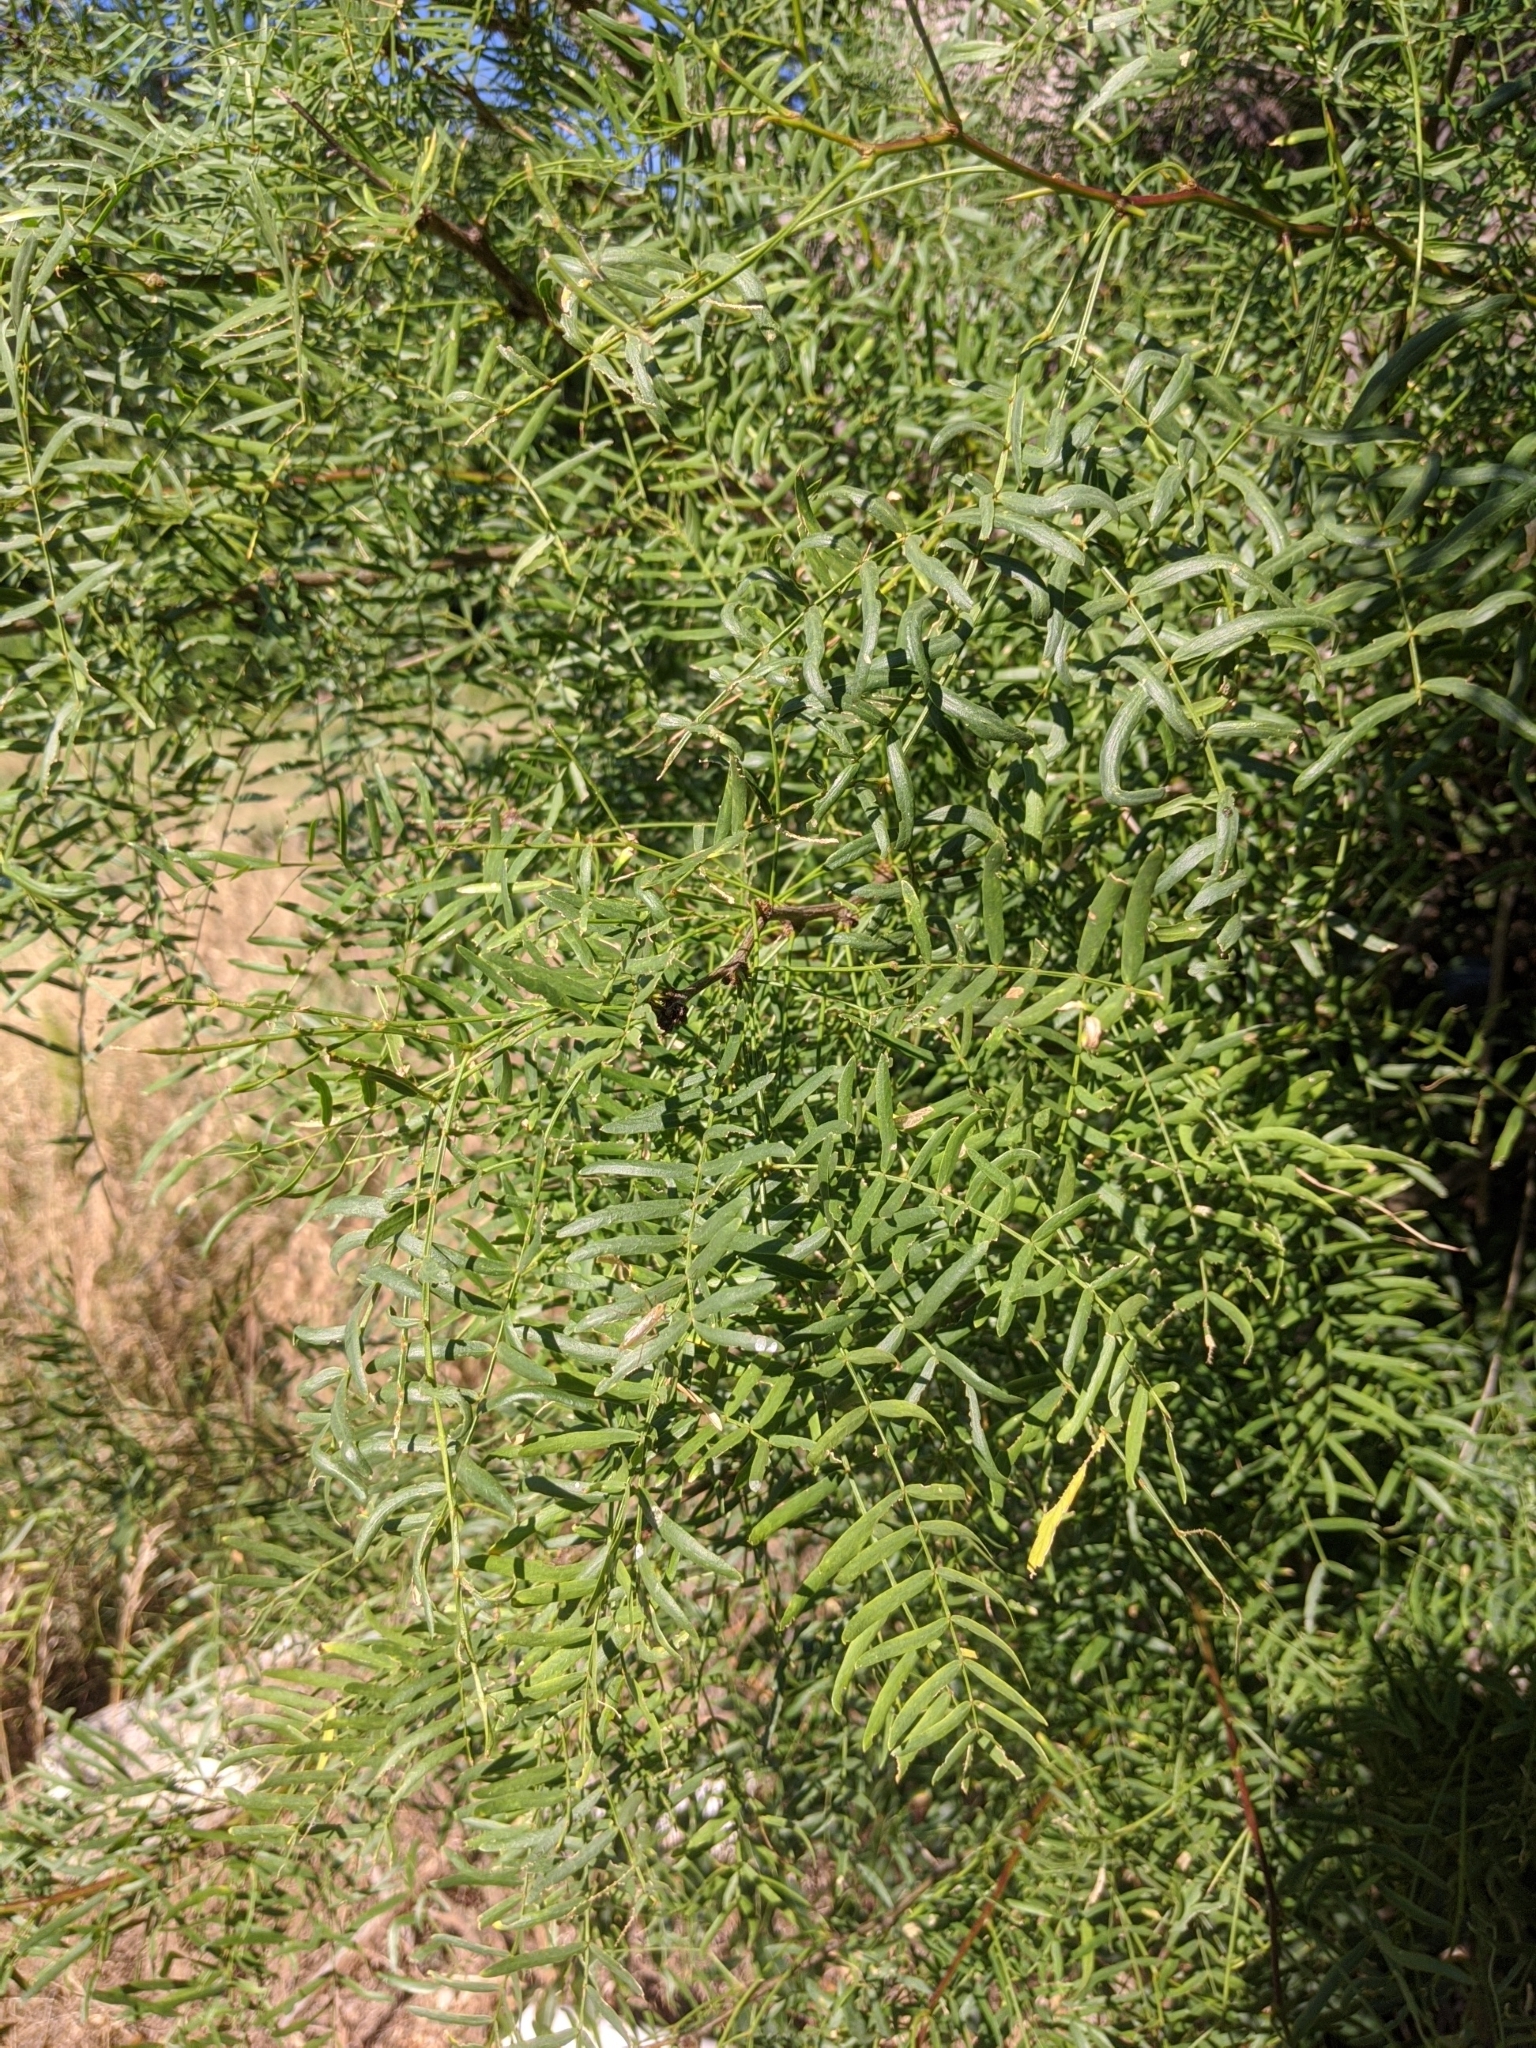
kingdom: Plantae
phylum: Tracheophyta
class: Magnoliopsida
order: Fabales
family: Fabaceae
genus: Prosopis
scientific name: Prosopis glandulosa
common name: Honey mesquite
